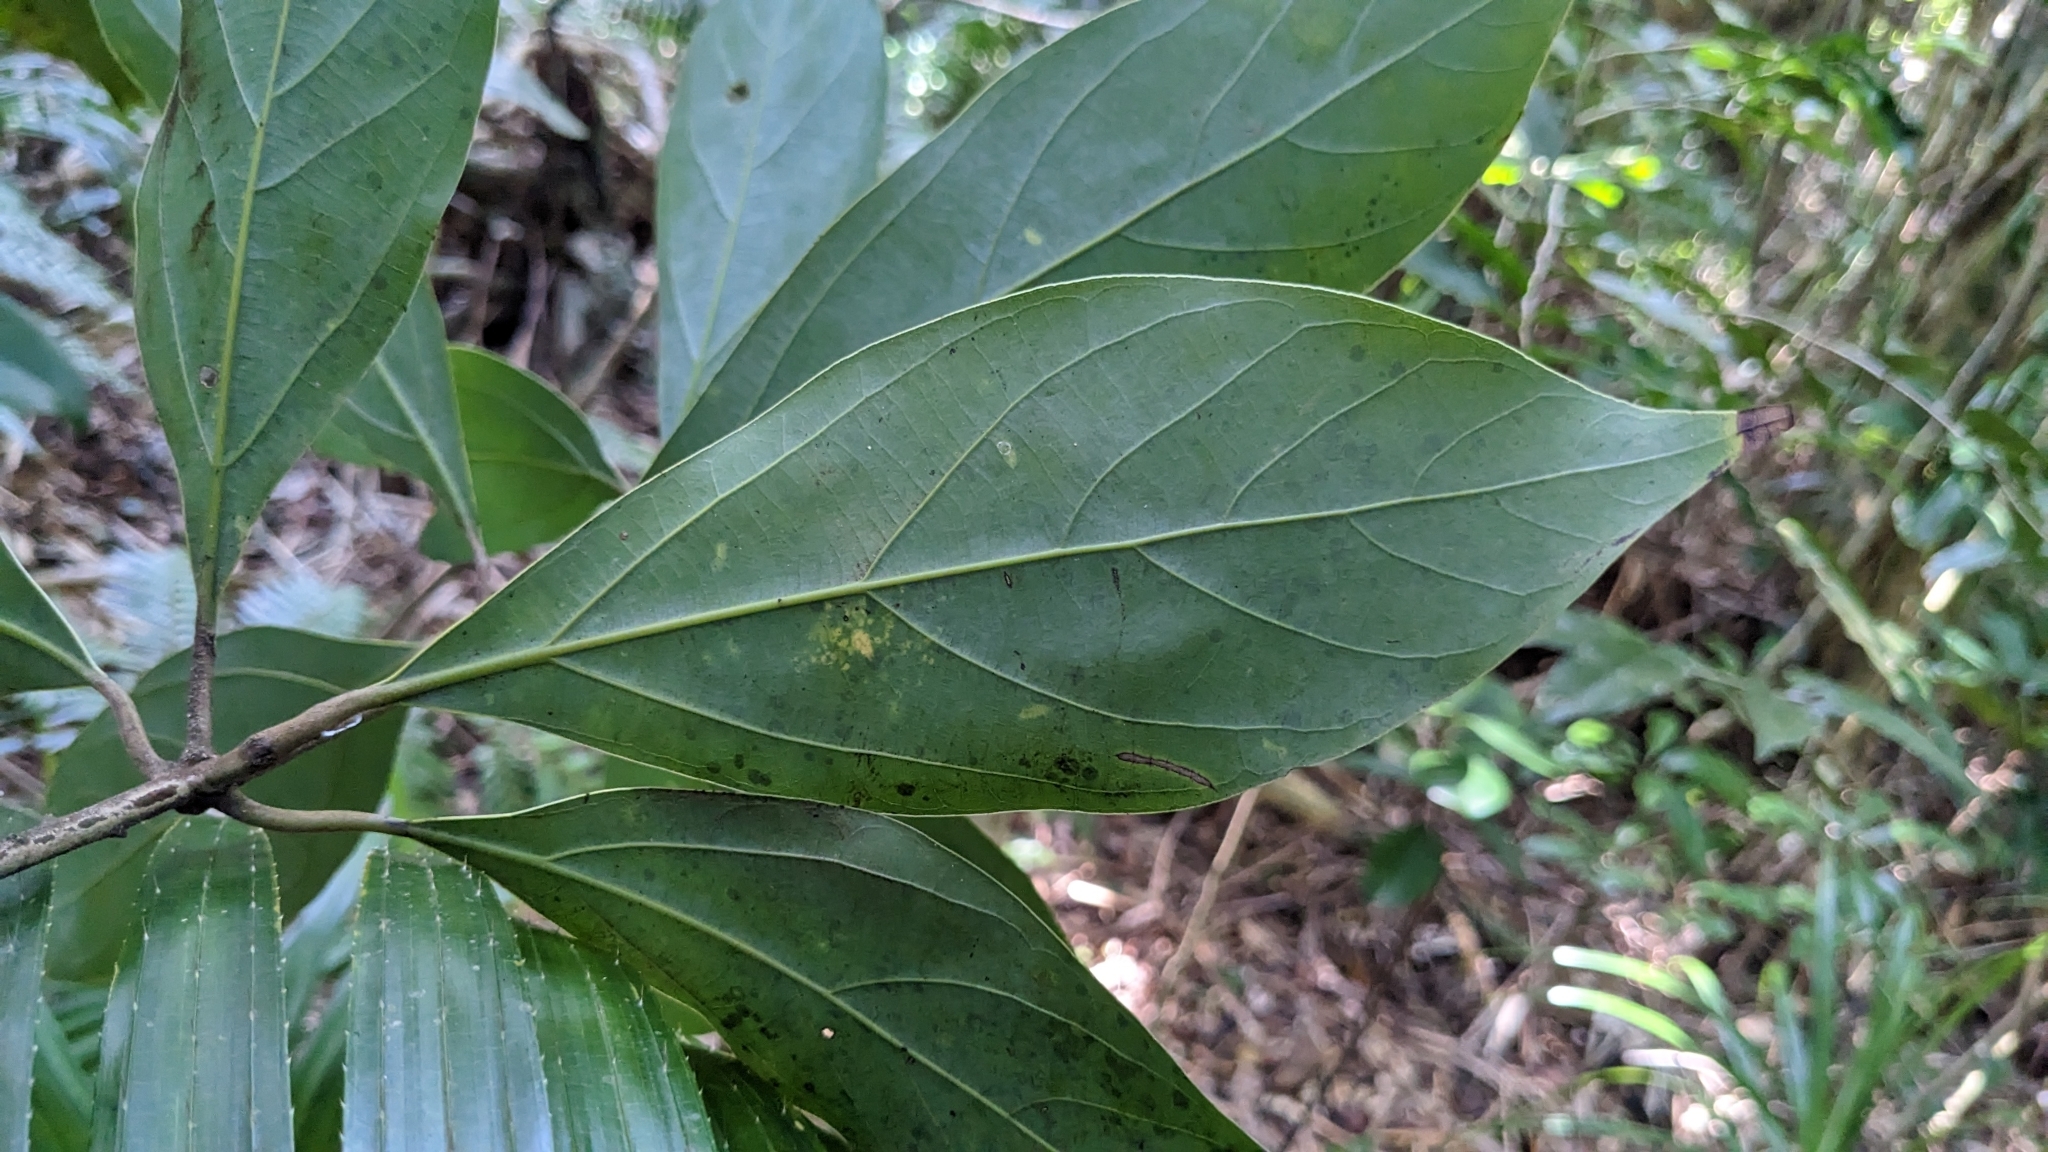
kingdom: Plantae
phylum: Tracheophyta
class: Magnoliopsida
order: Laurales
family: Lauraceae
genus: Neolitsea
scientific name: Neolitsea villosa
